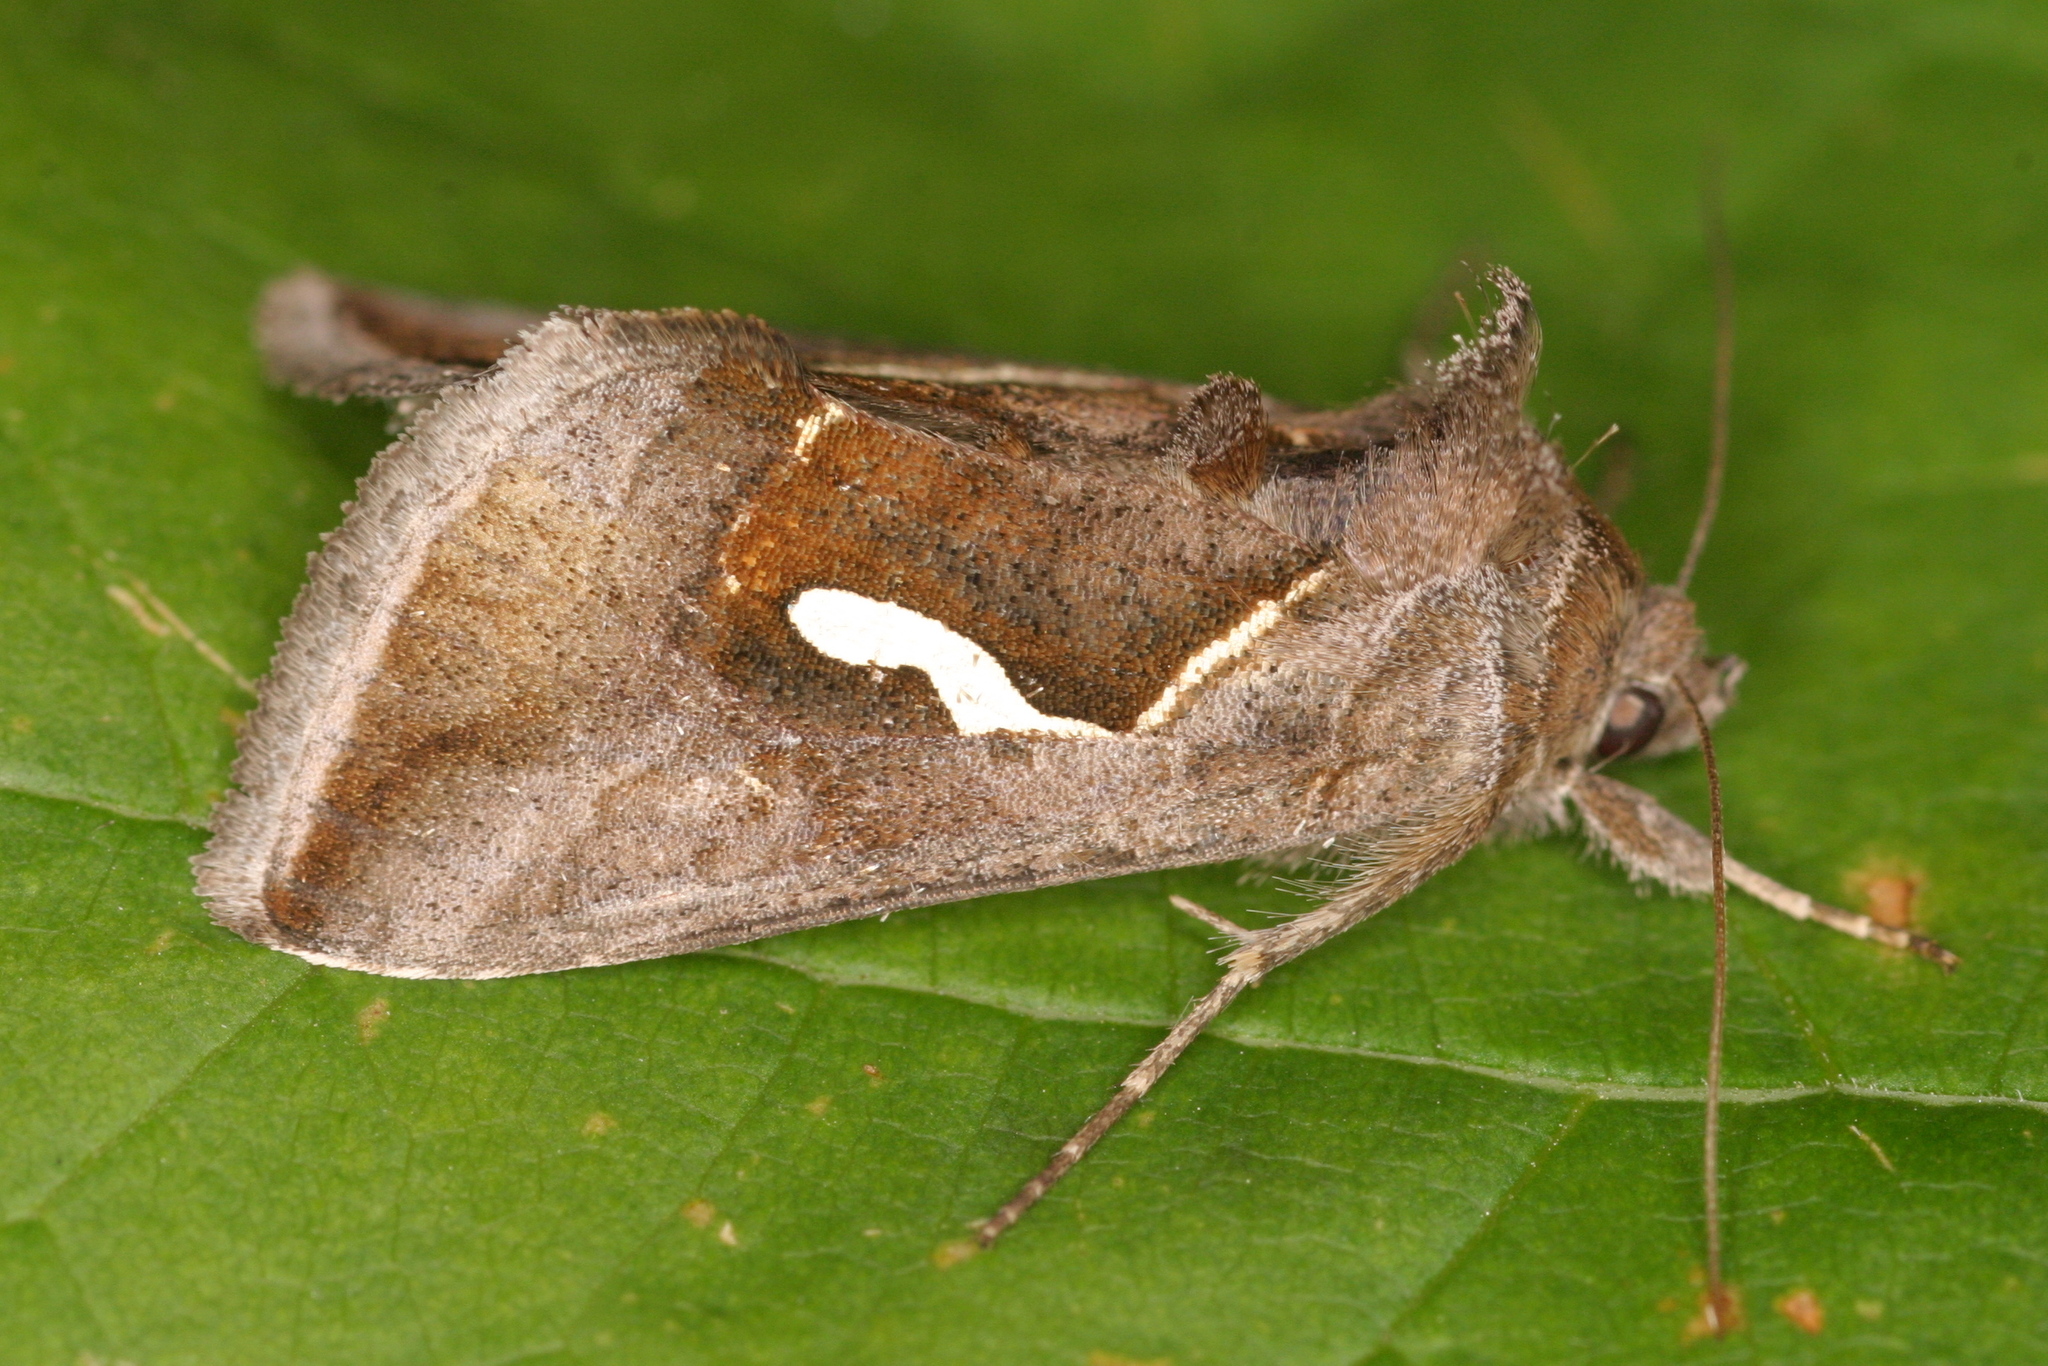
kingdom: Animalia
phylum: Arthropoda
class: Insecta
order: Lepidoptera
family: Noctuidae
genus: Macdunnoughia
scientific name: Macdunnoughia confusa
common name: Dewick's plusia
